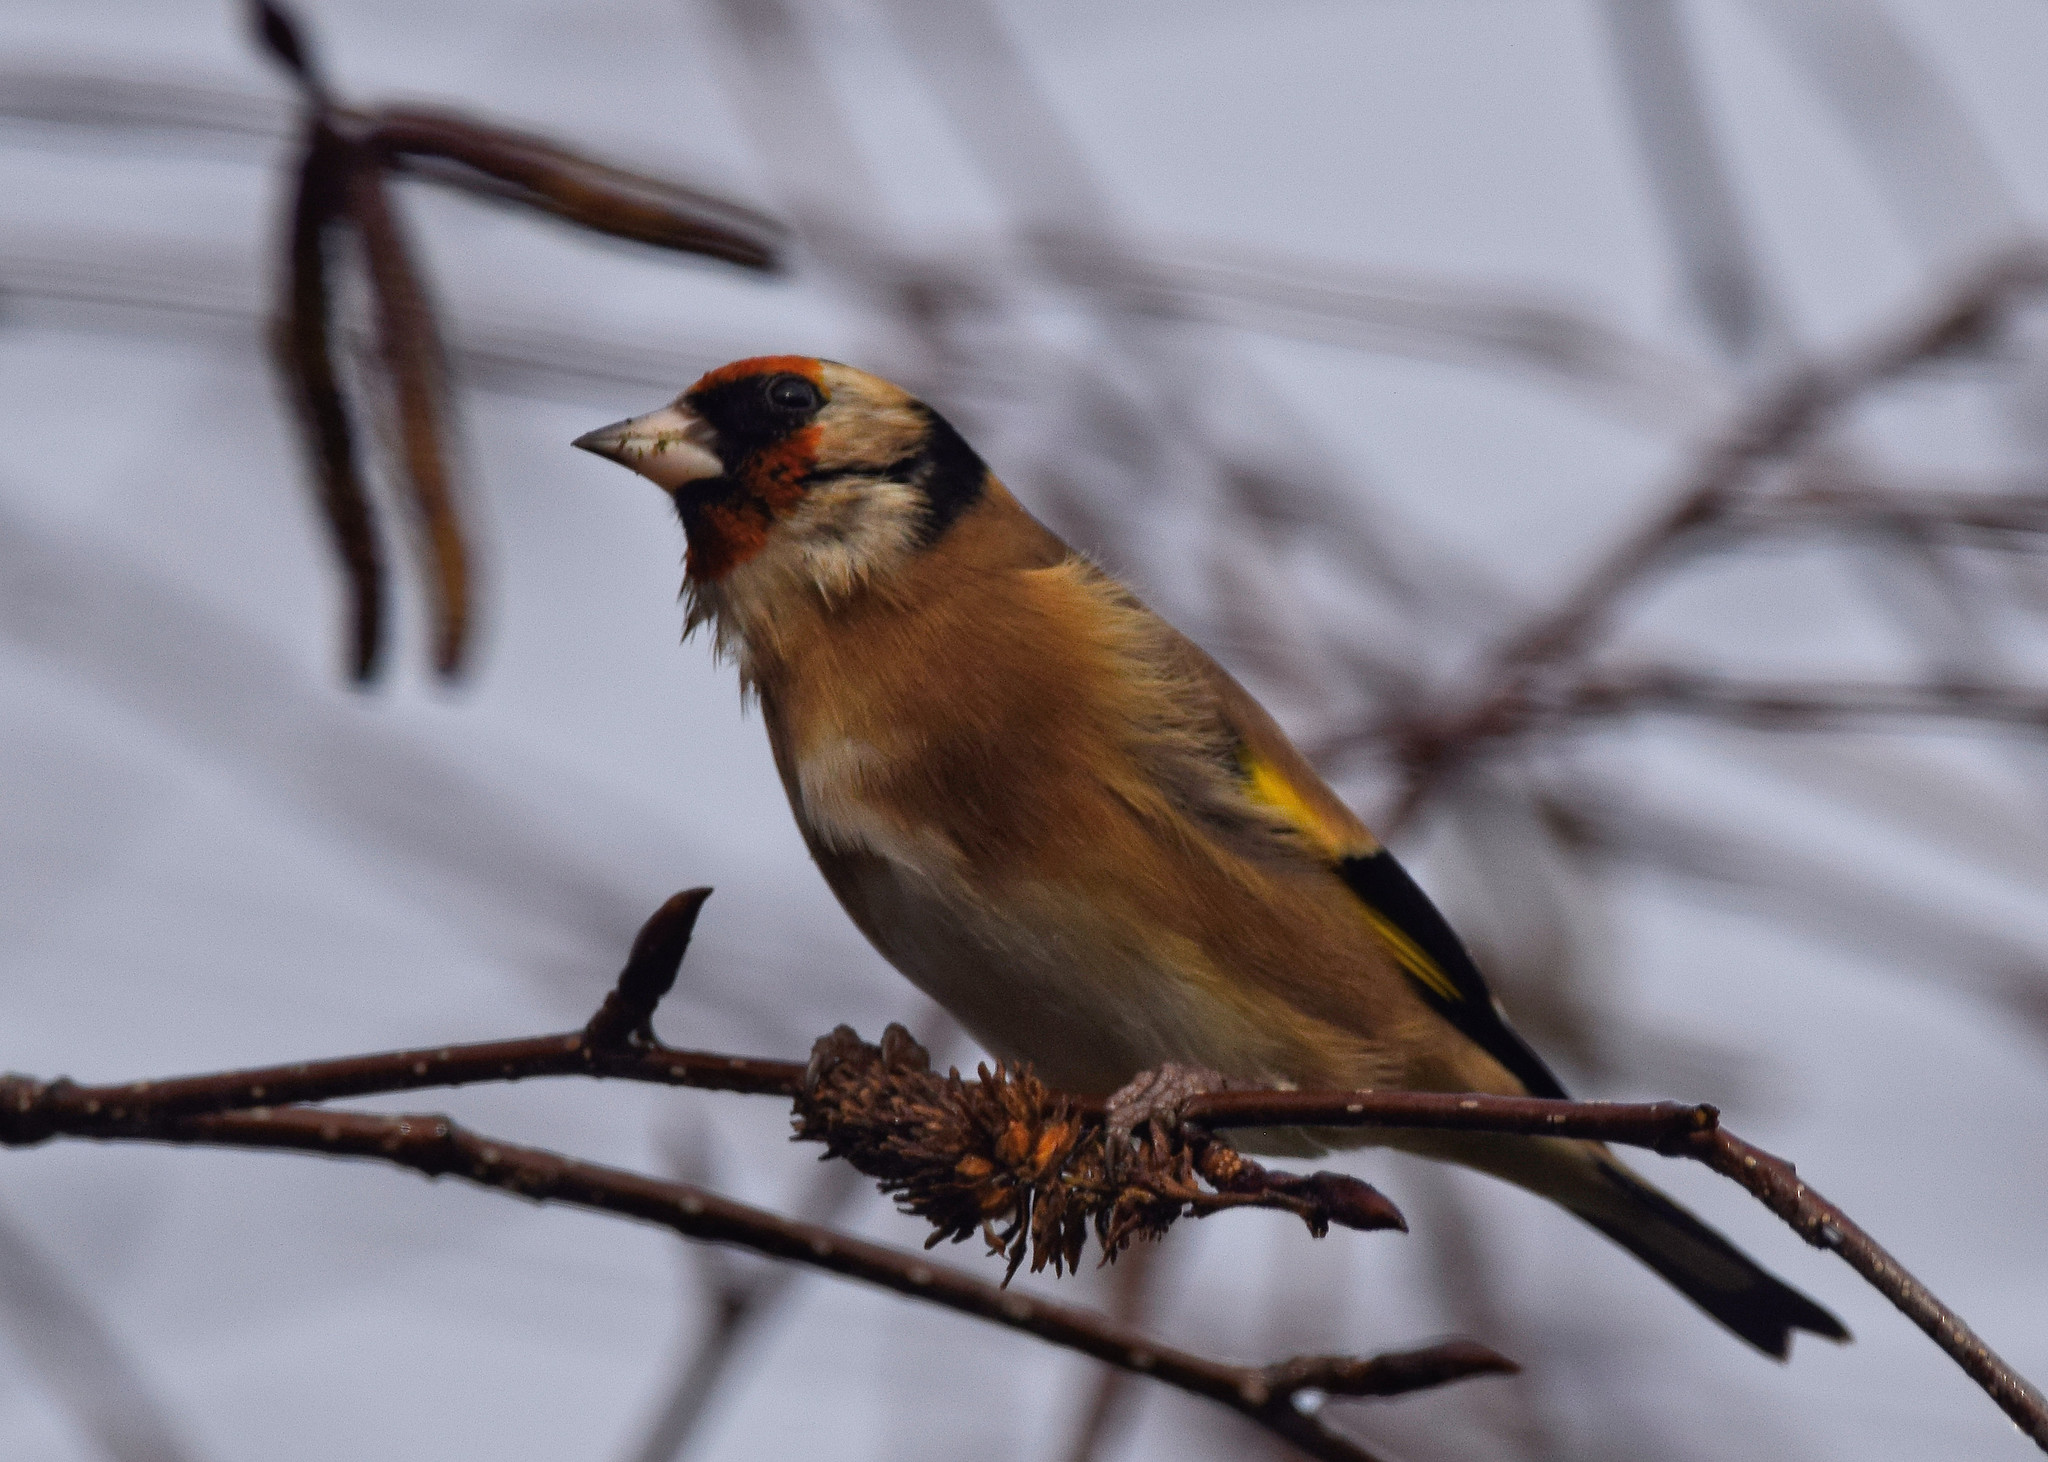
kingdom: Animalia
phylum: Chordata
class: Aves
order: Passeriformes
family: Fringillidae
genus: Carduelis
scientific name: Carduelis carduelis
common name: European goldfinch
